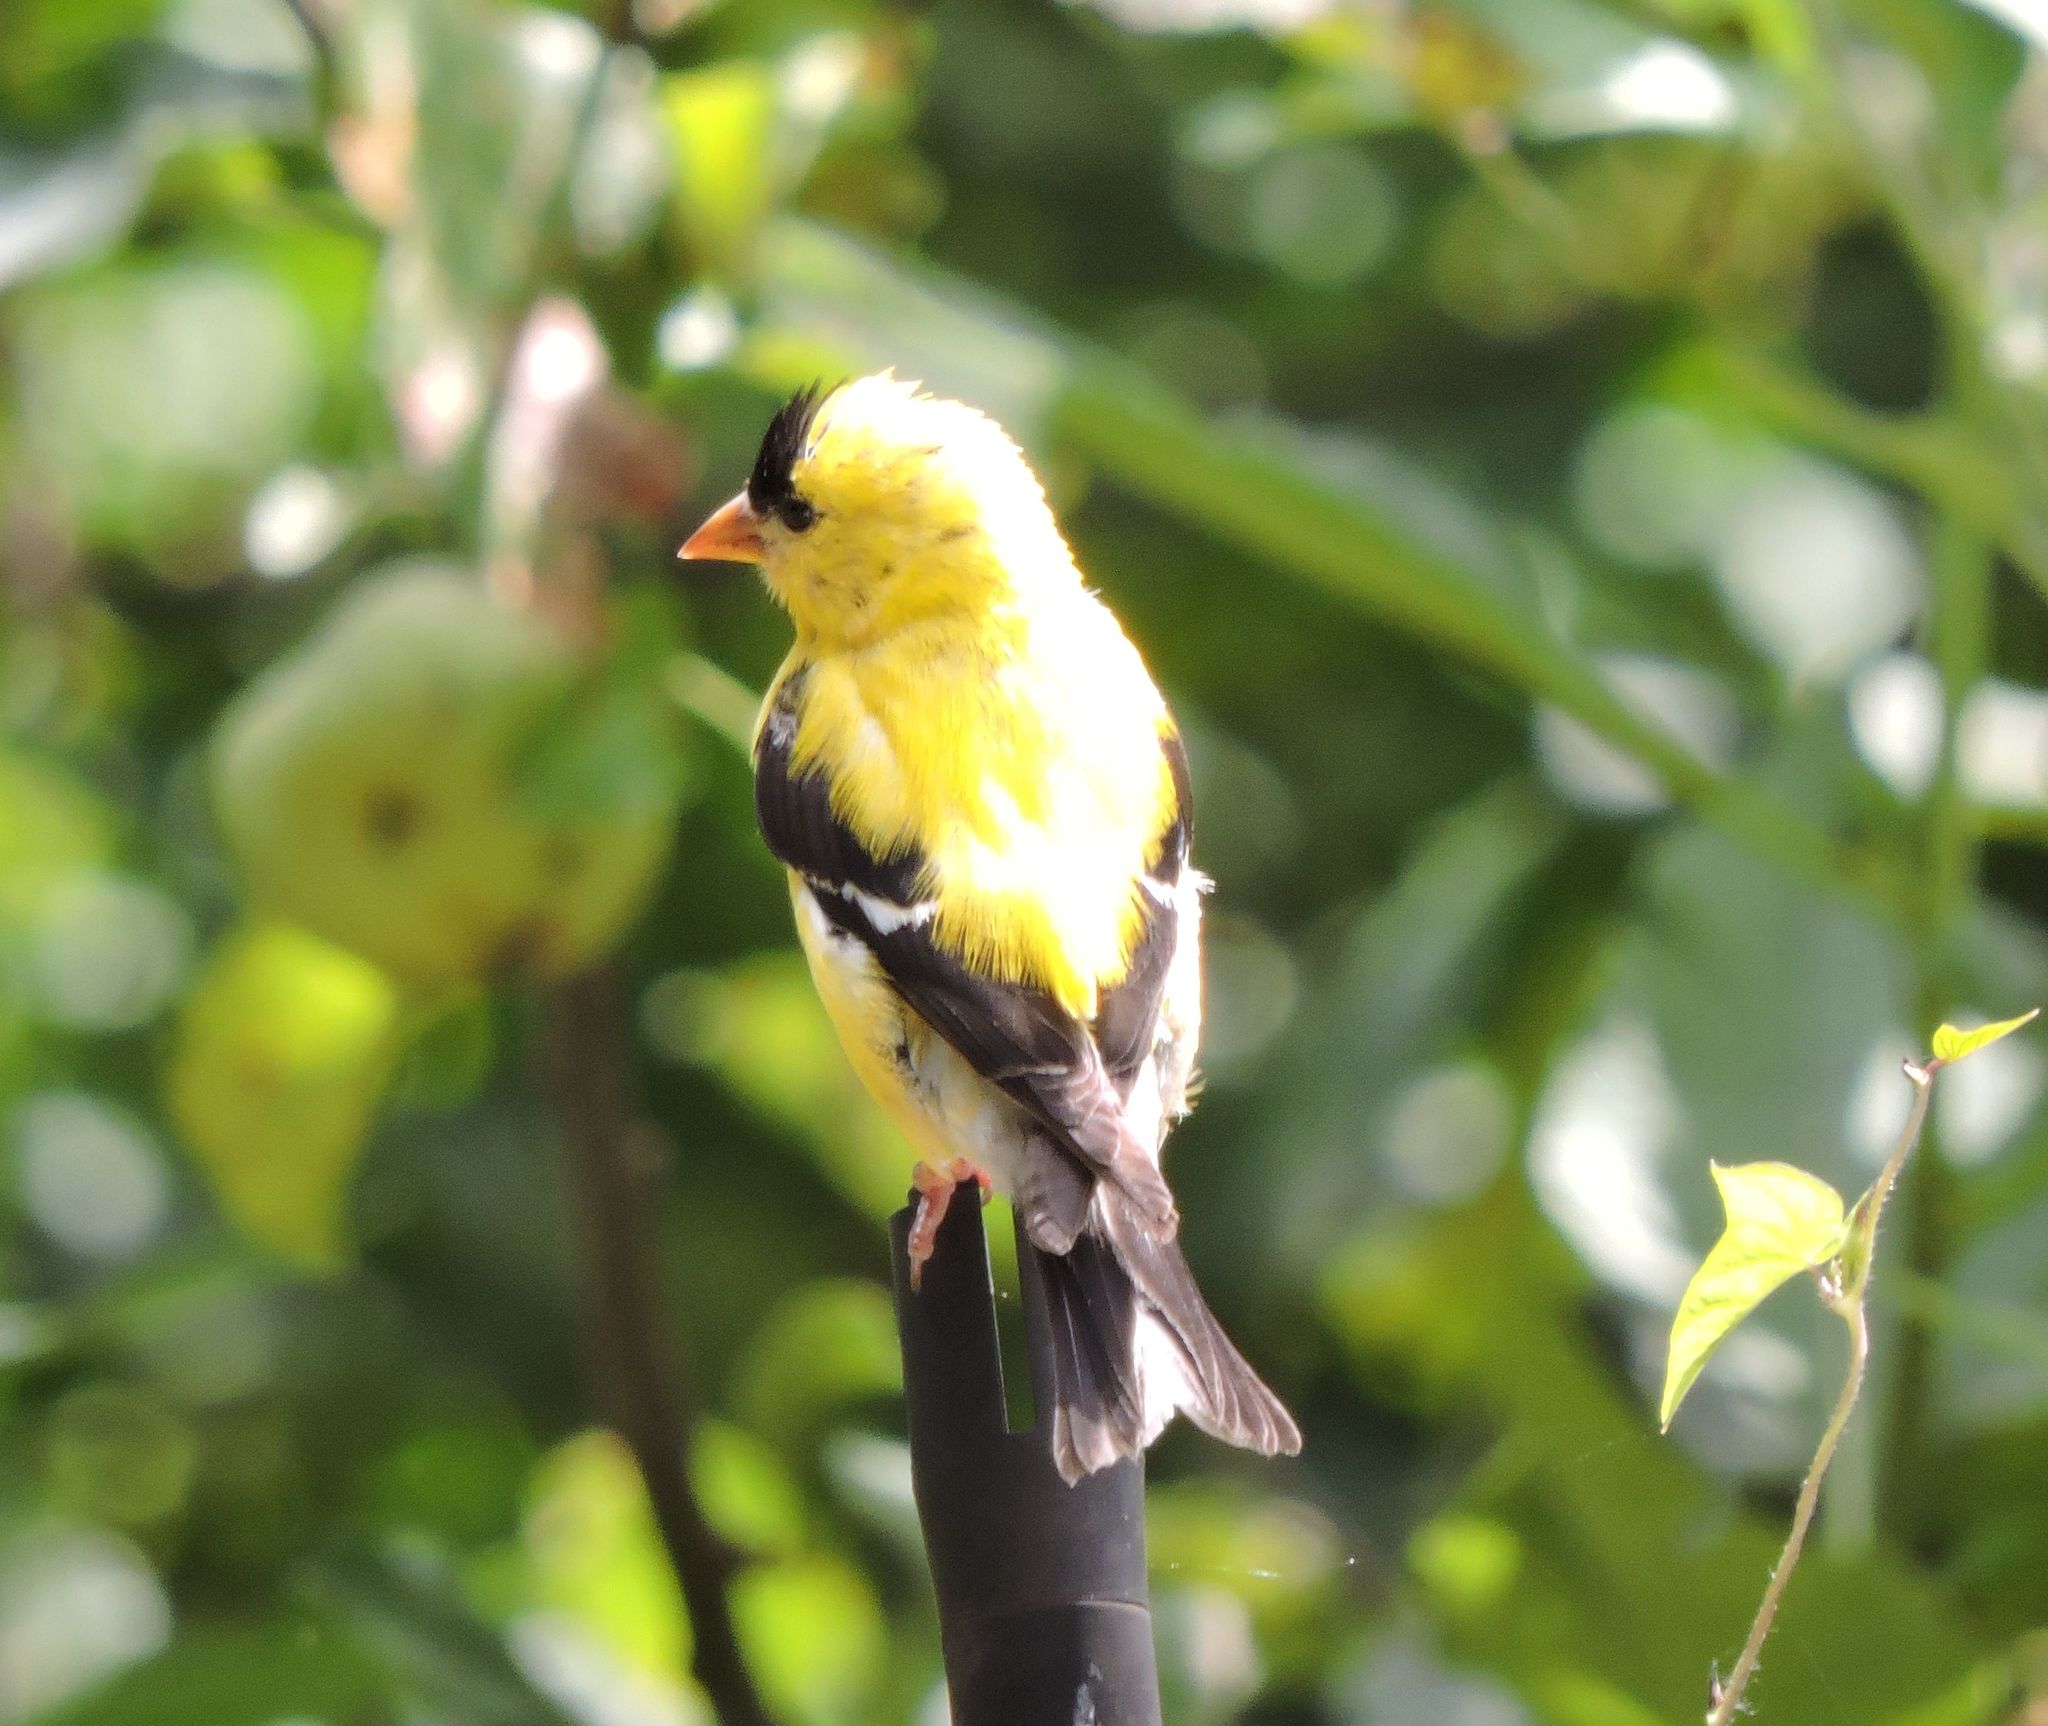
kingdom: Animalia
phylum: Chordata
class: Aves
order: Passeriformes
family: Fringillidae
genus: Spinus
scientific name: Spinus tristis
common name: American goldfinch
